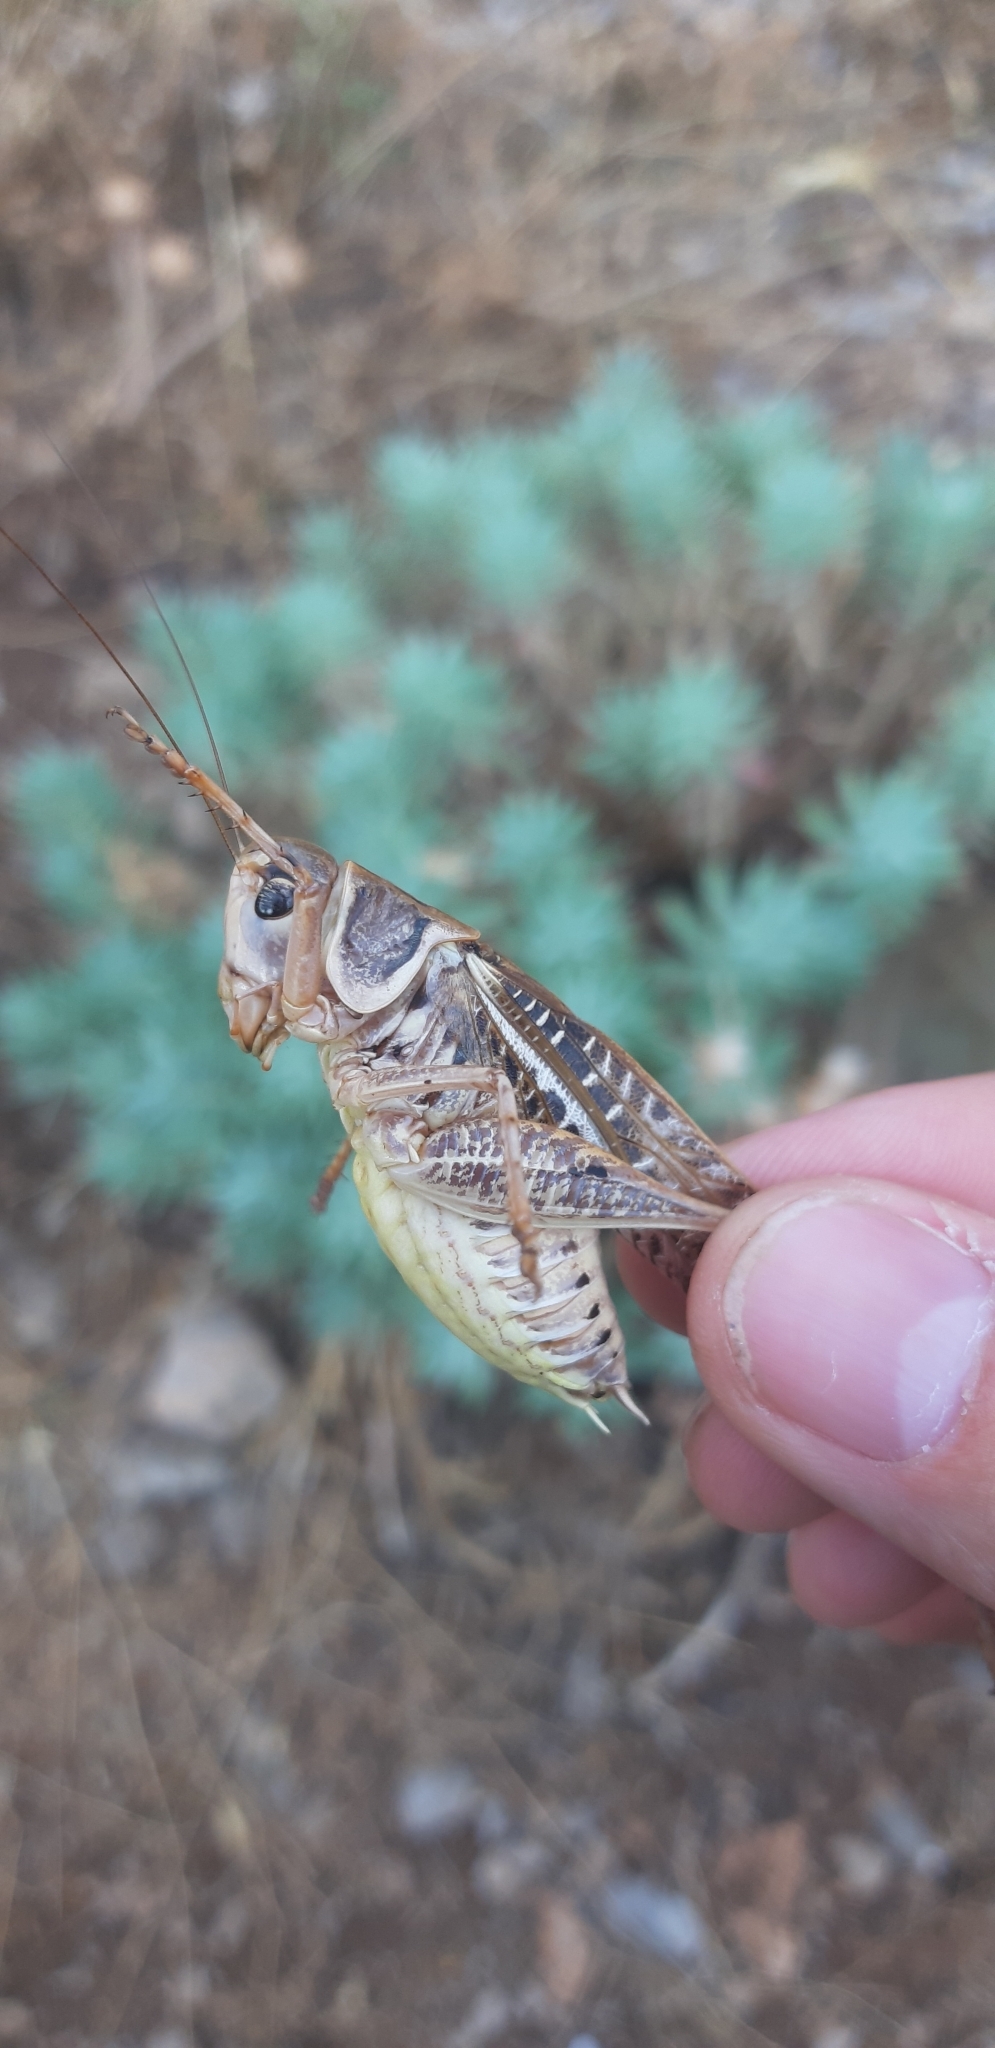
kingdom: Animalia
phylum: Arthropoda
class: Insecta
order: Orthoptera
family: Tettigoniidae
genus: Decticus
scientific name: Decticus albifrons
